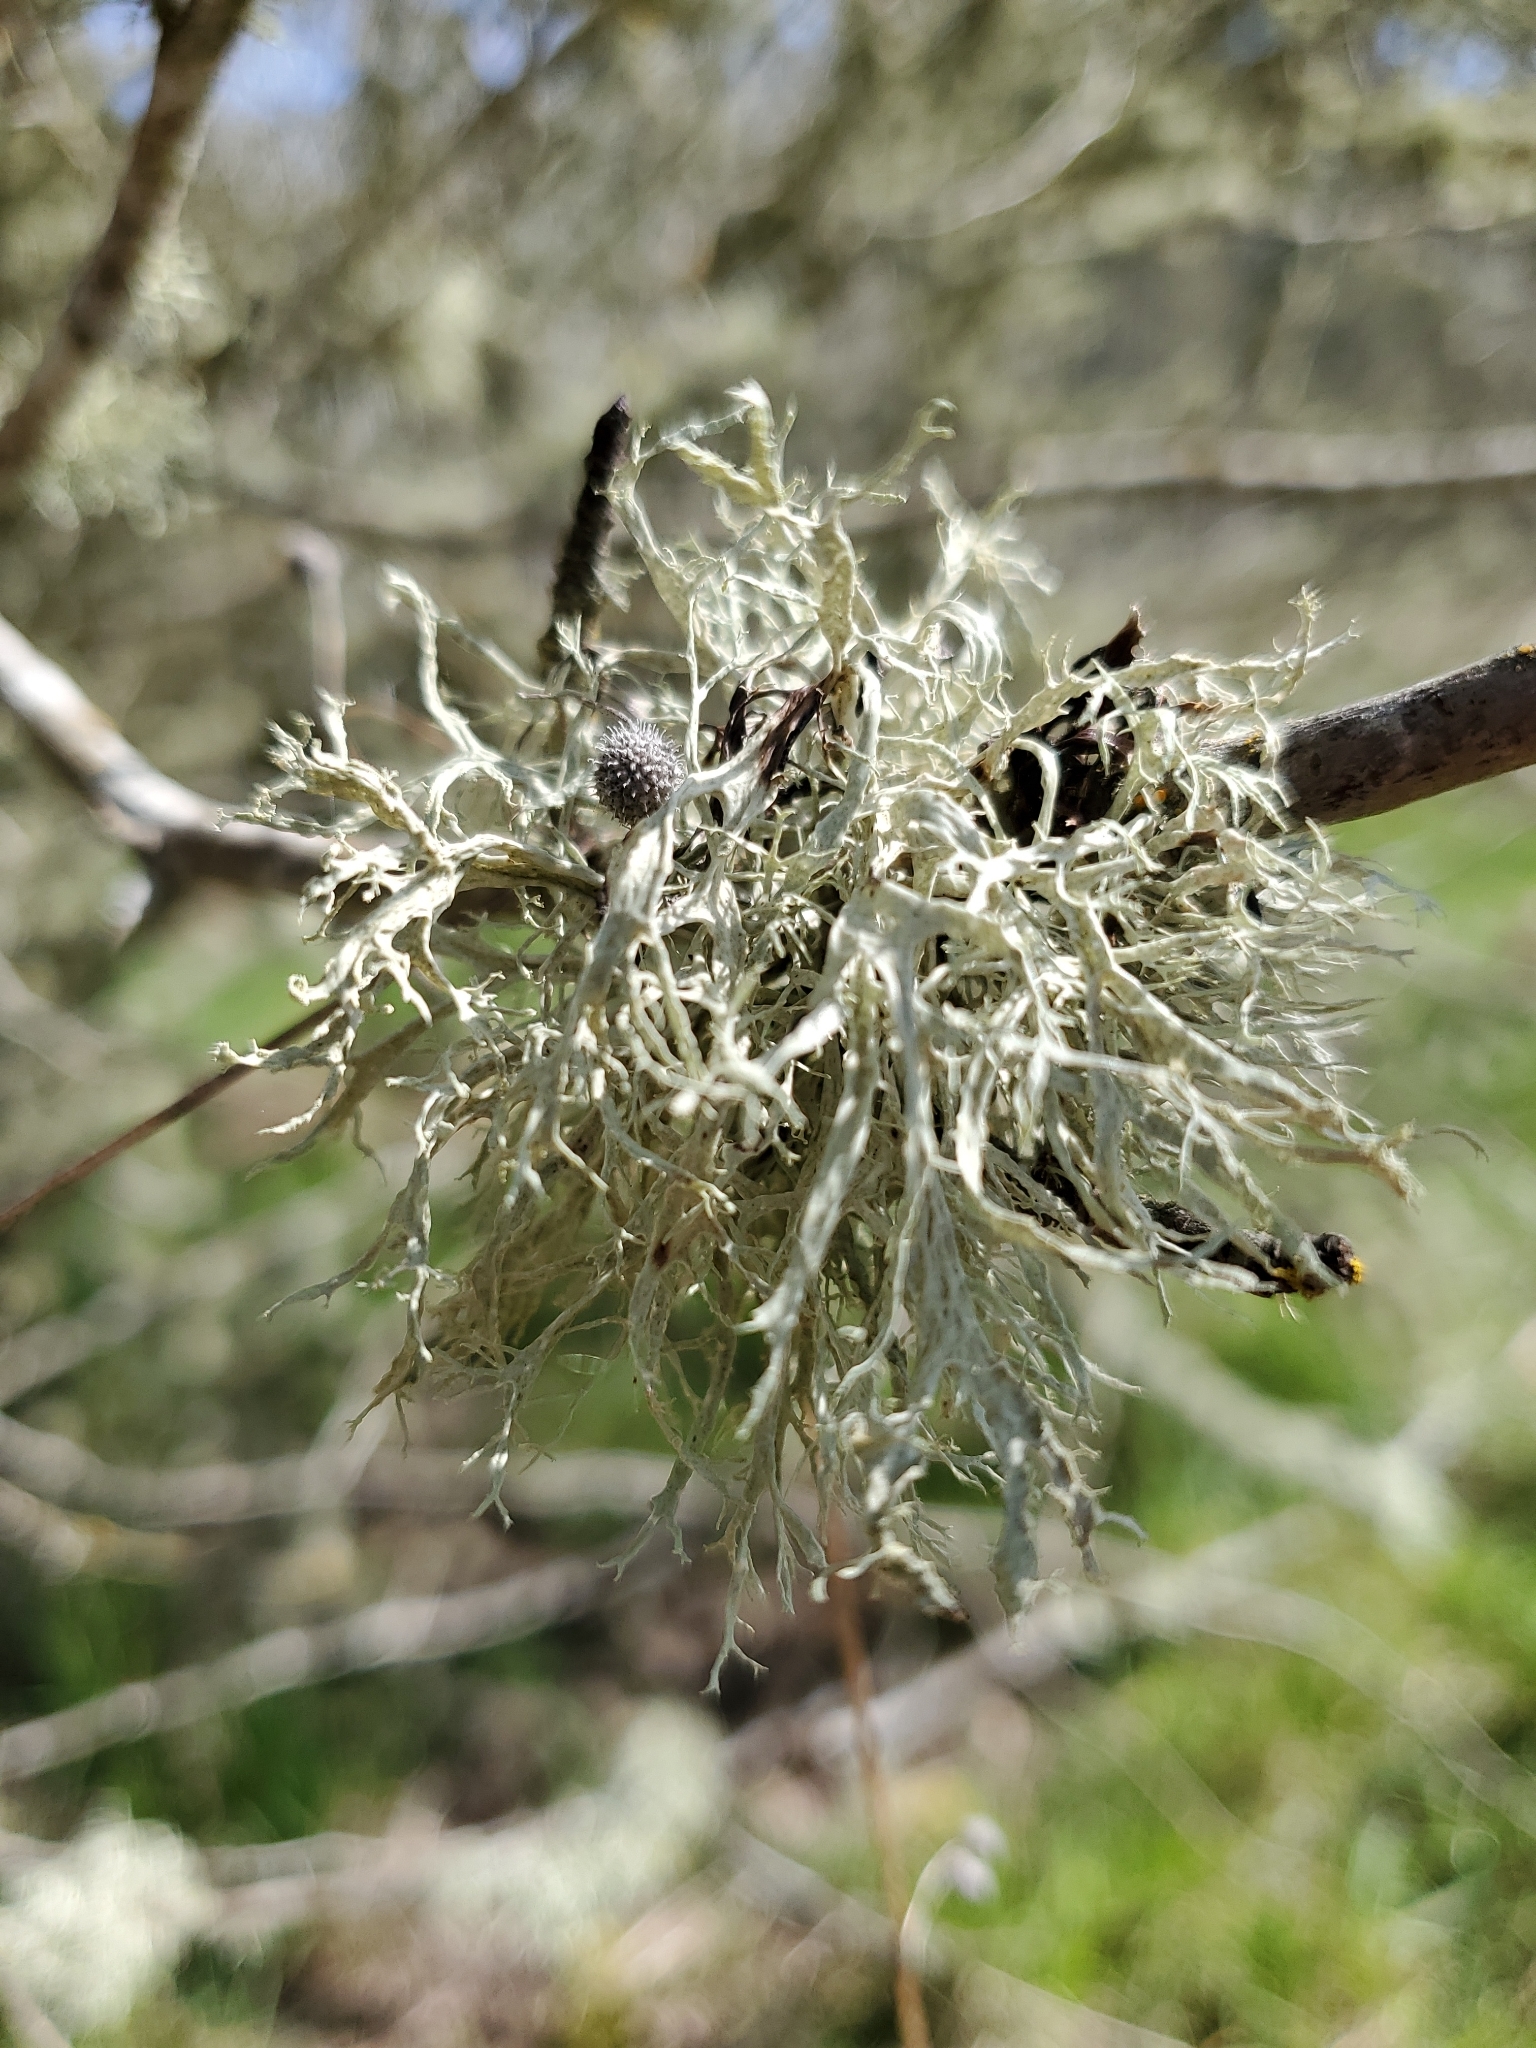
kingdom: Fungi
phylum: Ascomycota
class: Lecanoromycetes
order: Lecanorales
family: Ramalinaceae
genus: Ramalina
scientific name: Ramalina farinacea
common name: Farinose cartilage lichen
